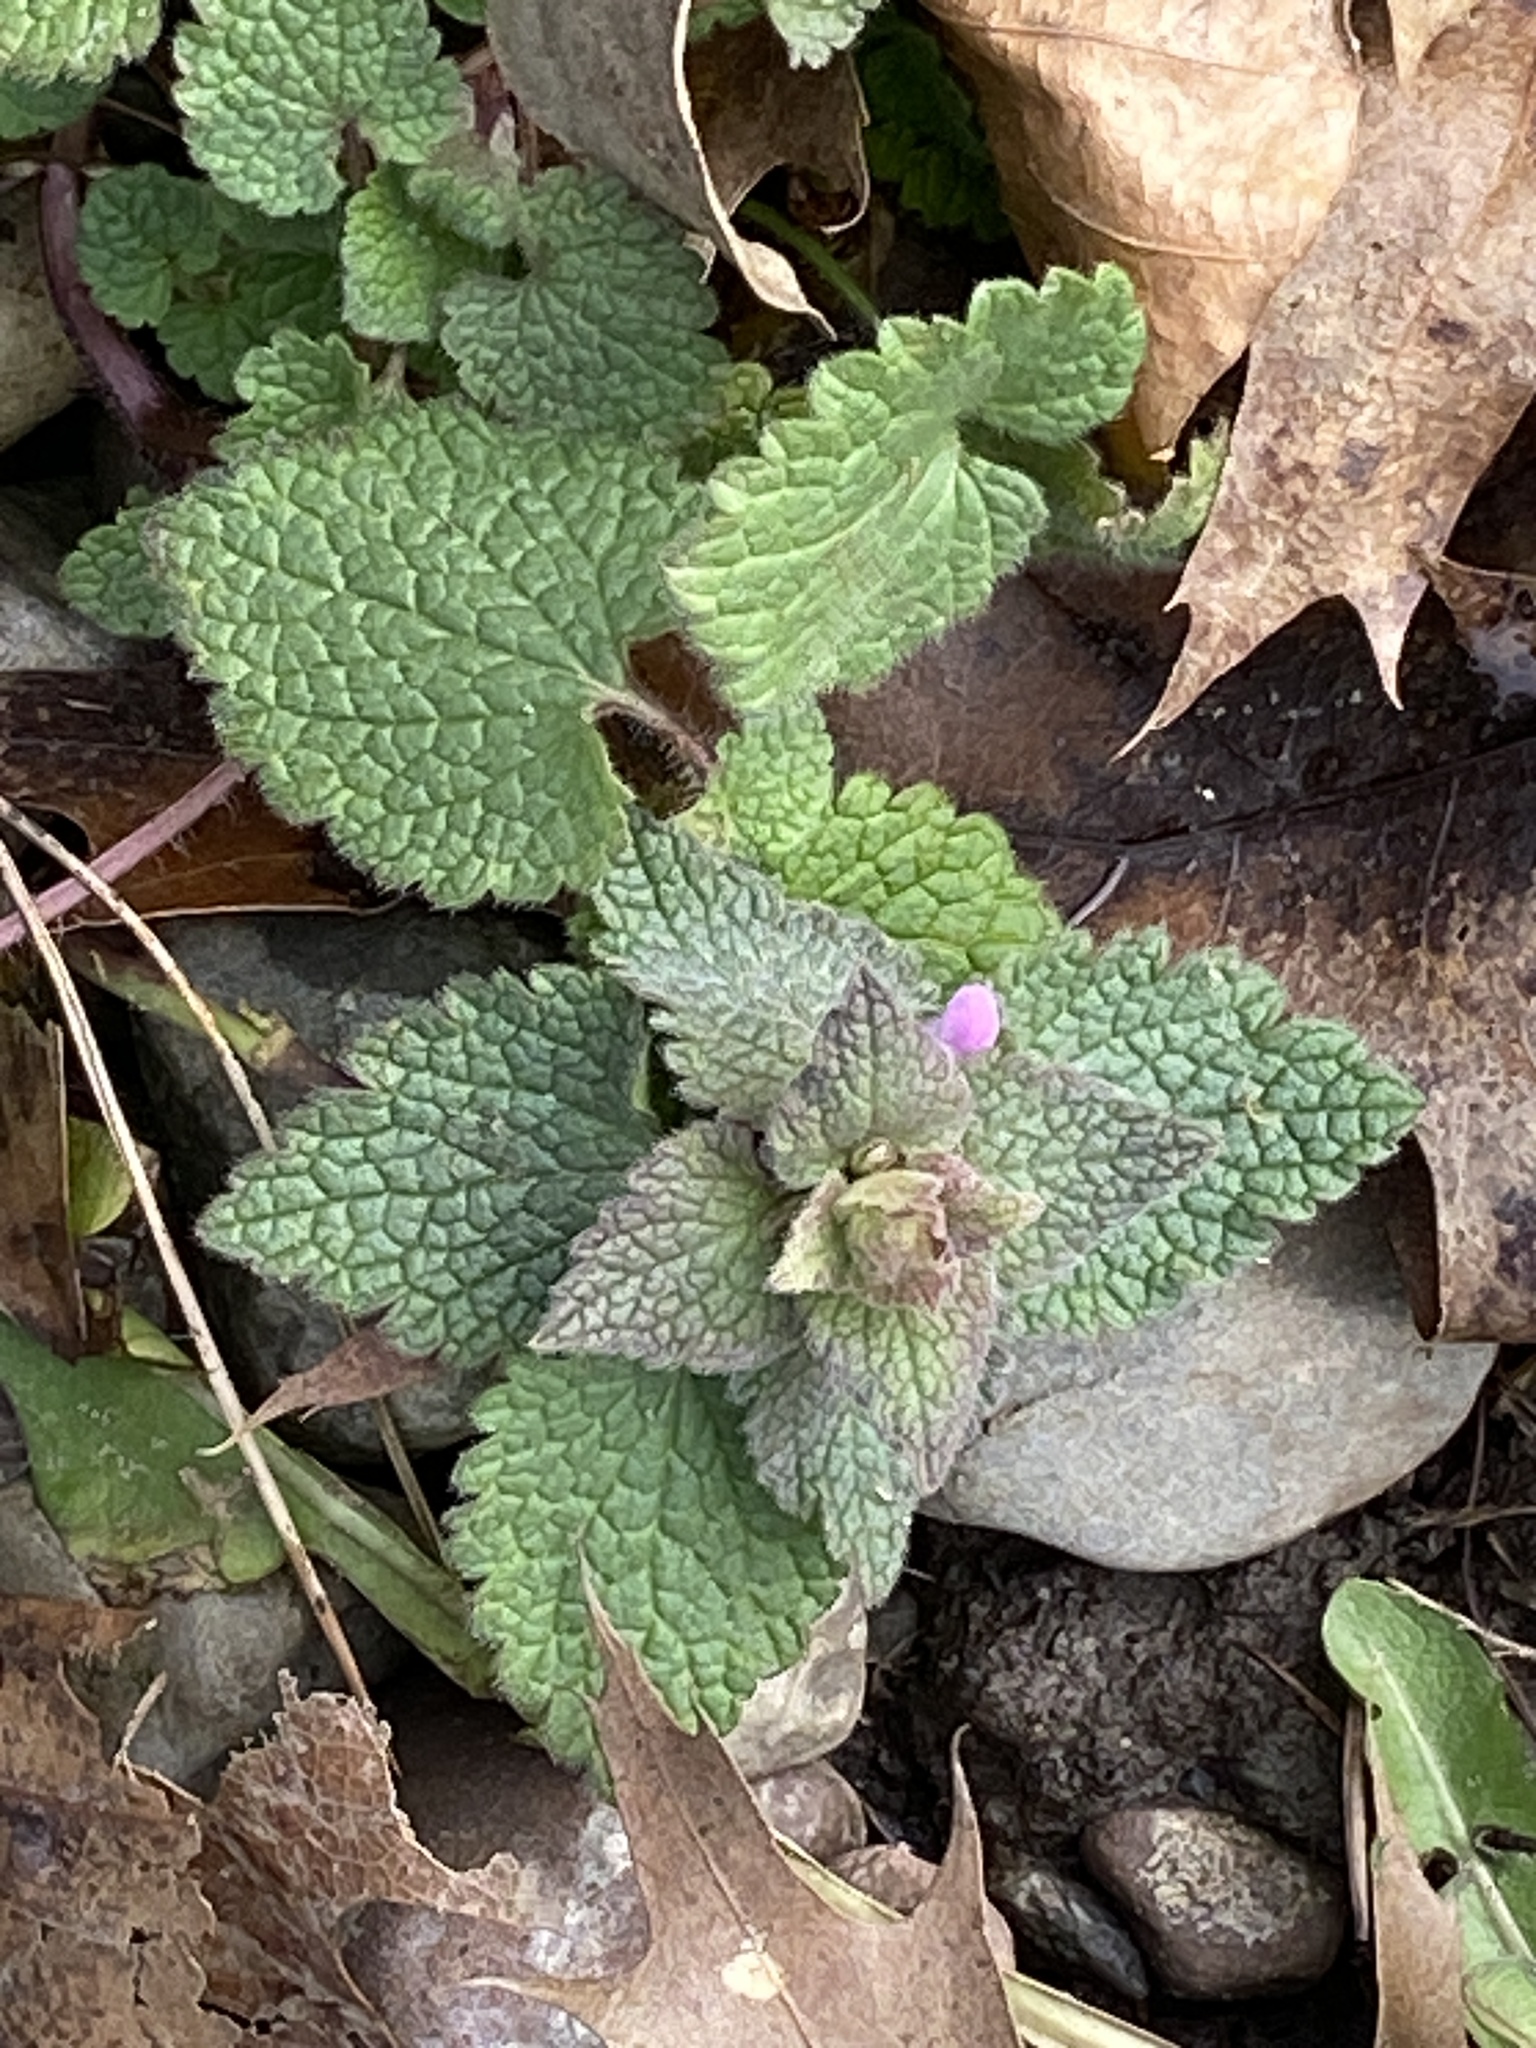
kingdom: Plantae
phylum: Tracheophyta
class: Magnoliopsida
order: Lamiales
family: Lamiaceae
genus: Lamium
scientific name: Lamium purpureum
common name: Red dead-nettle
